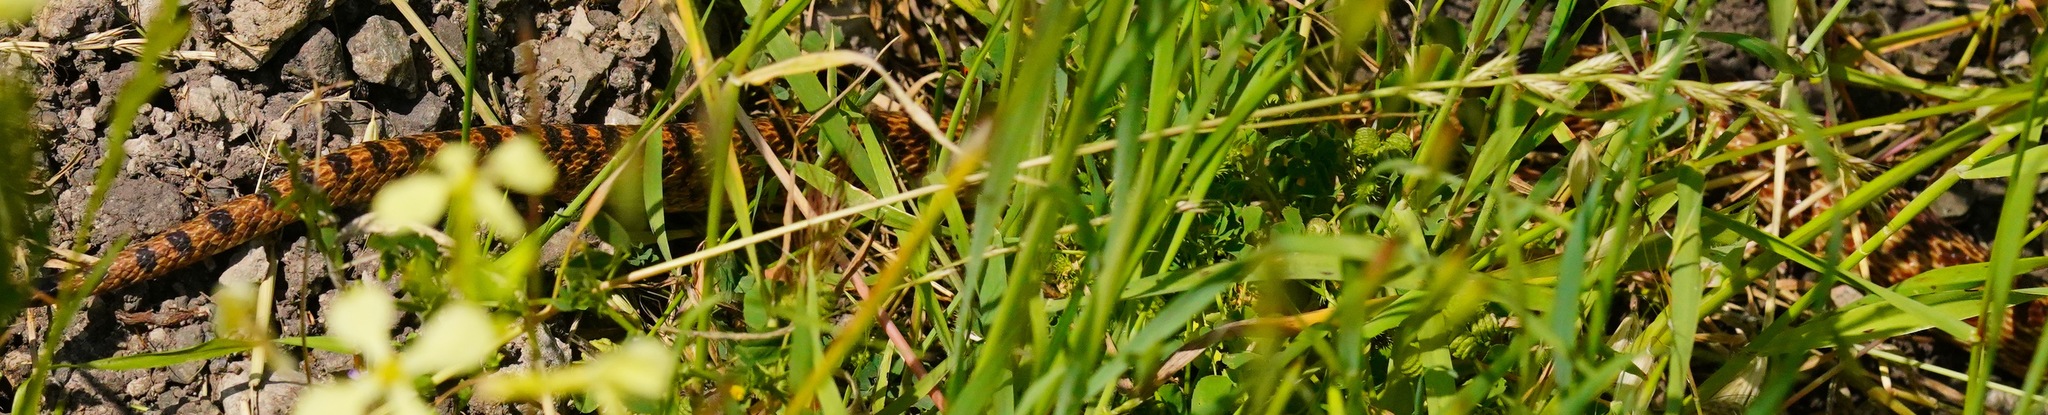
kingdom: Animalia
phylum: Chordata
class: Squamata
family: Colubridae
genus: Pituophis
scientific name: Pituophis catenifer
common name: Gopher snake
